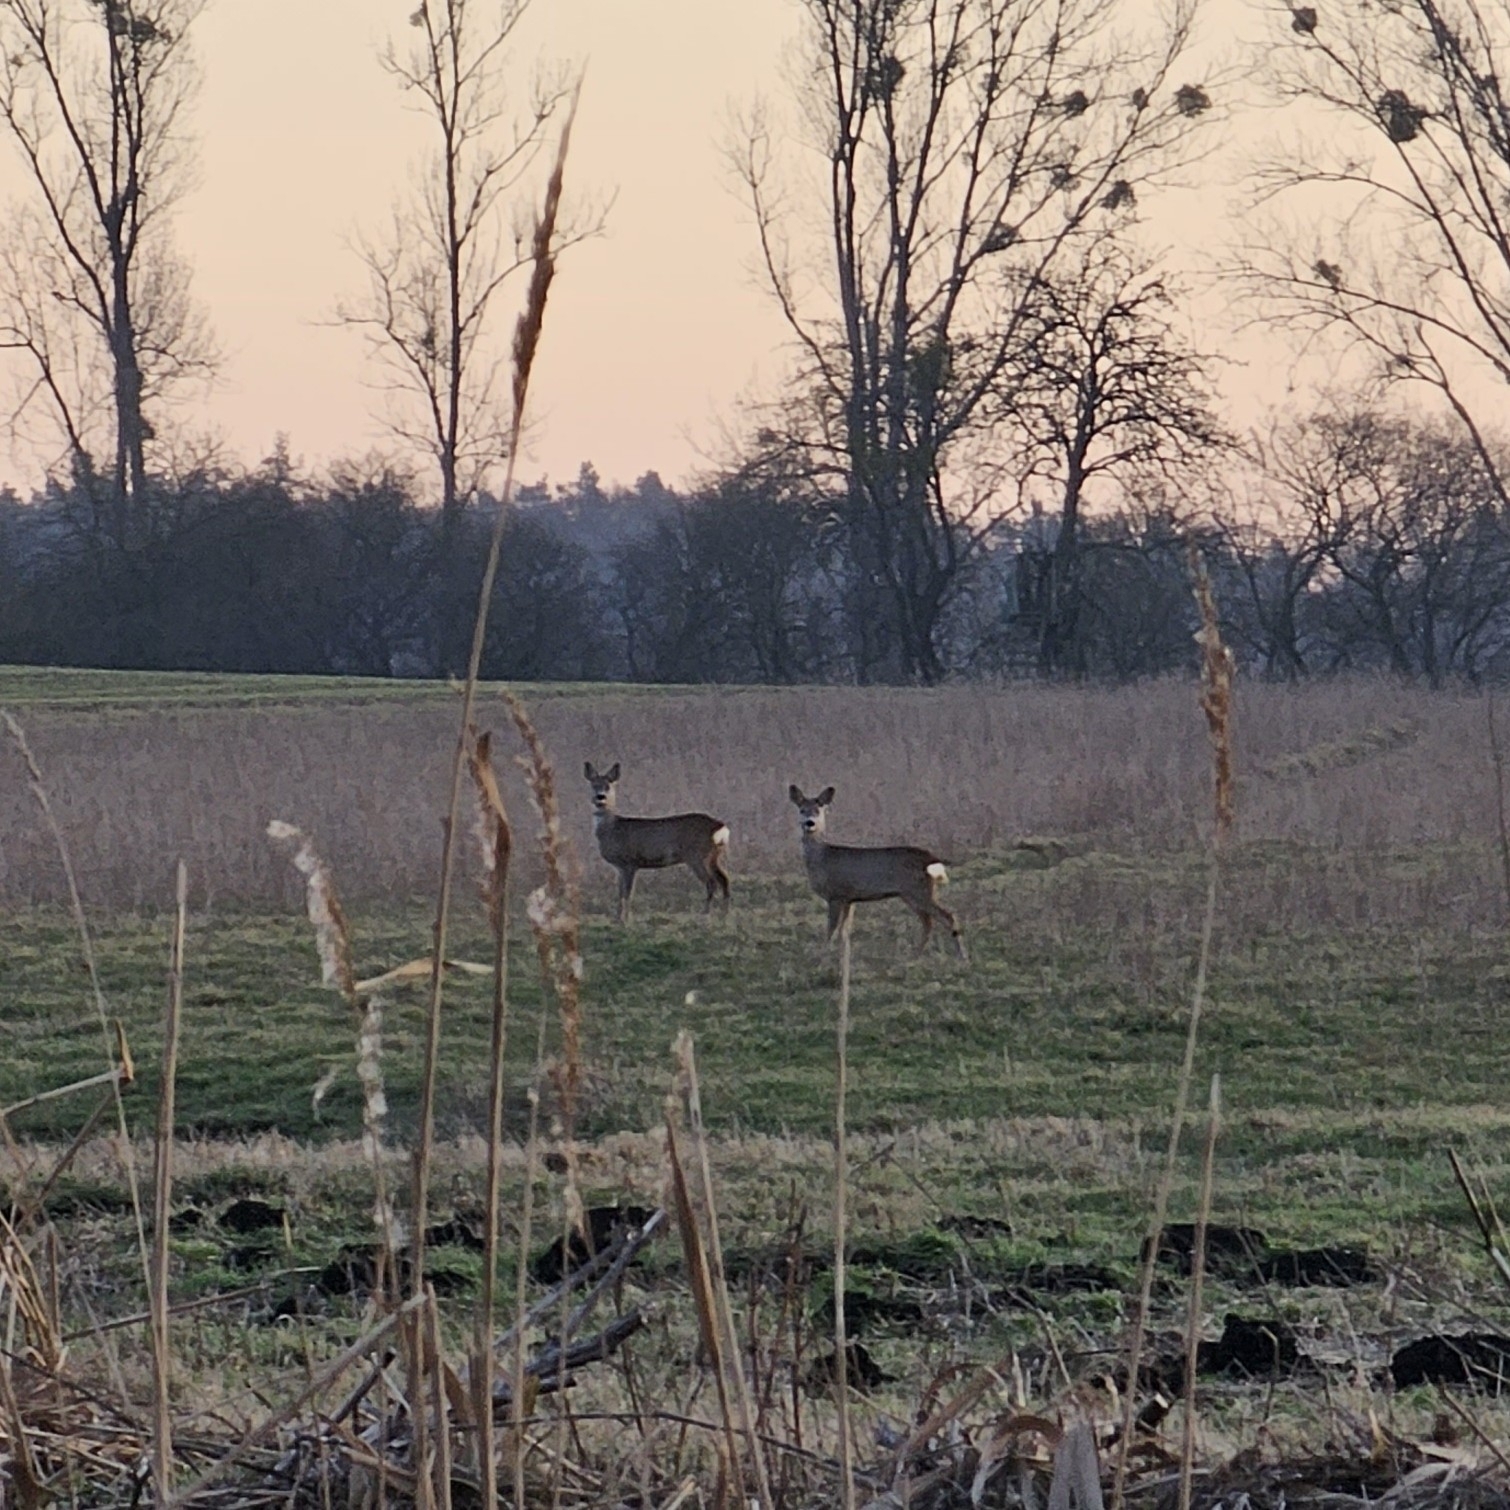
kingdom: Animalia
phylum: Chordata
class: Mammalia
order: Artiodactyla
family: Cervidae
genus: Capreolus
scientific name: Capreolus capreolus
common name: Western roe deer
